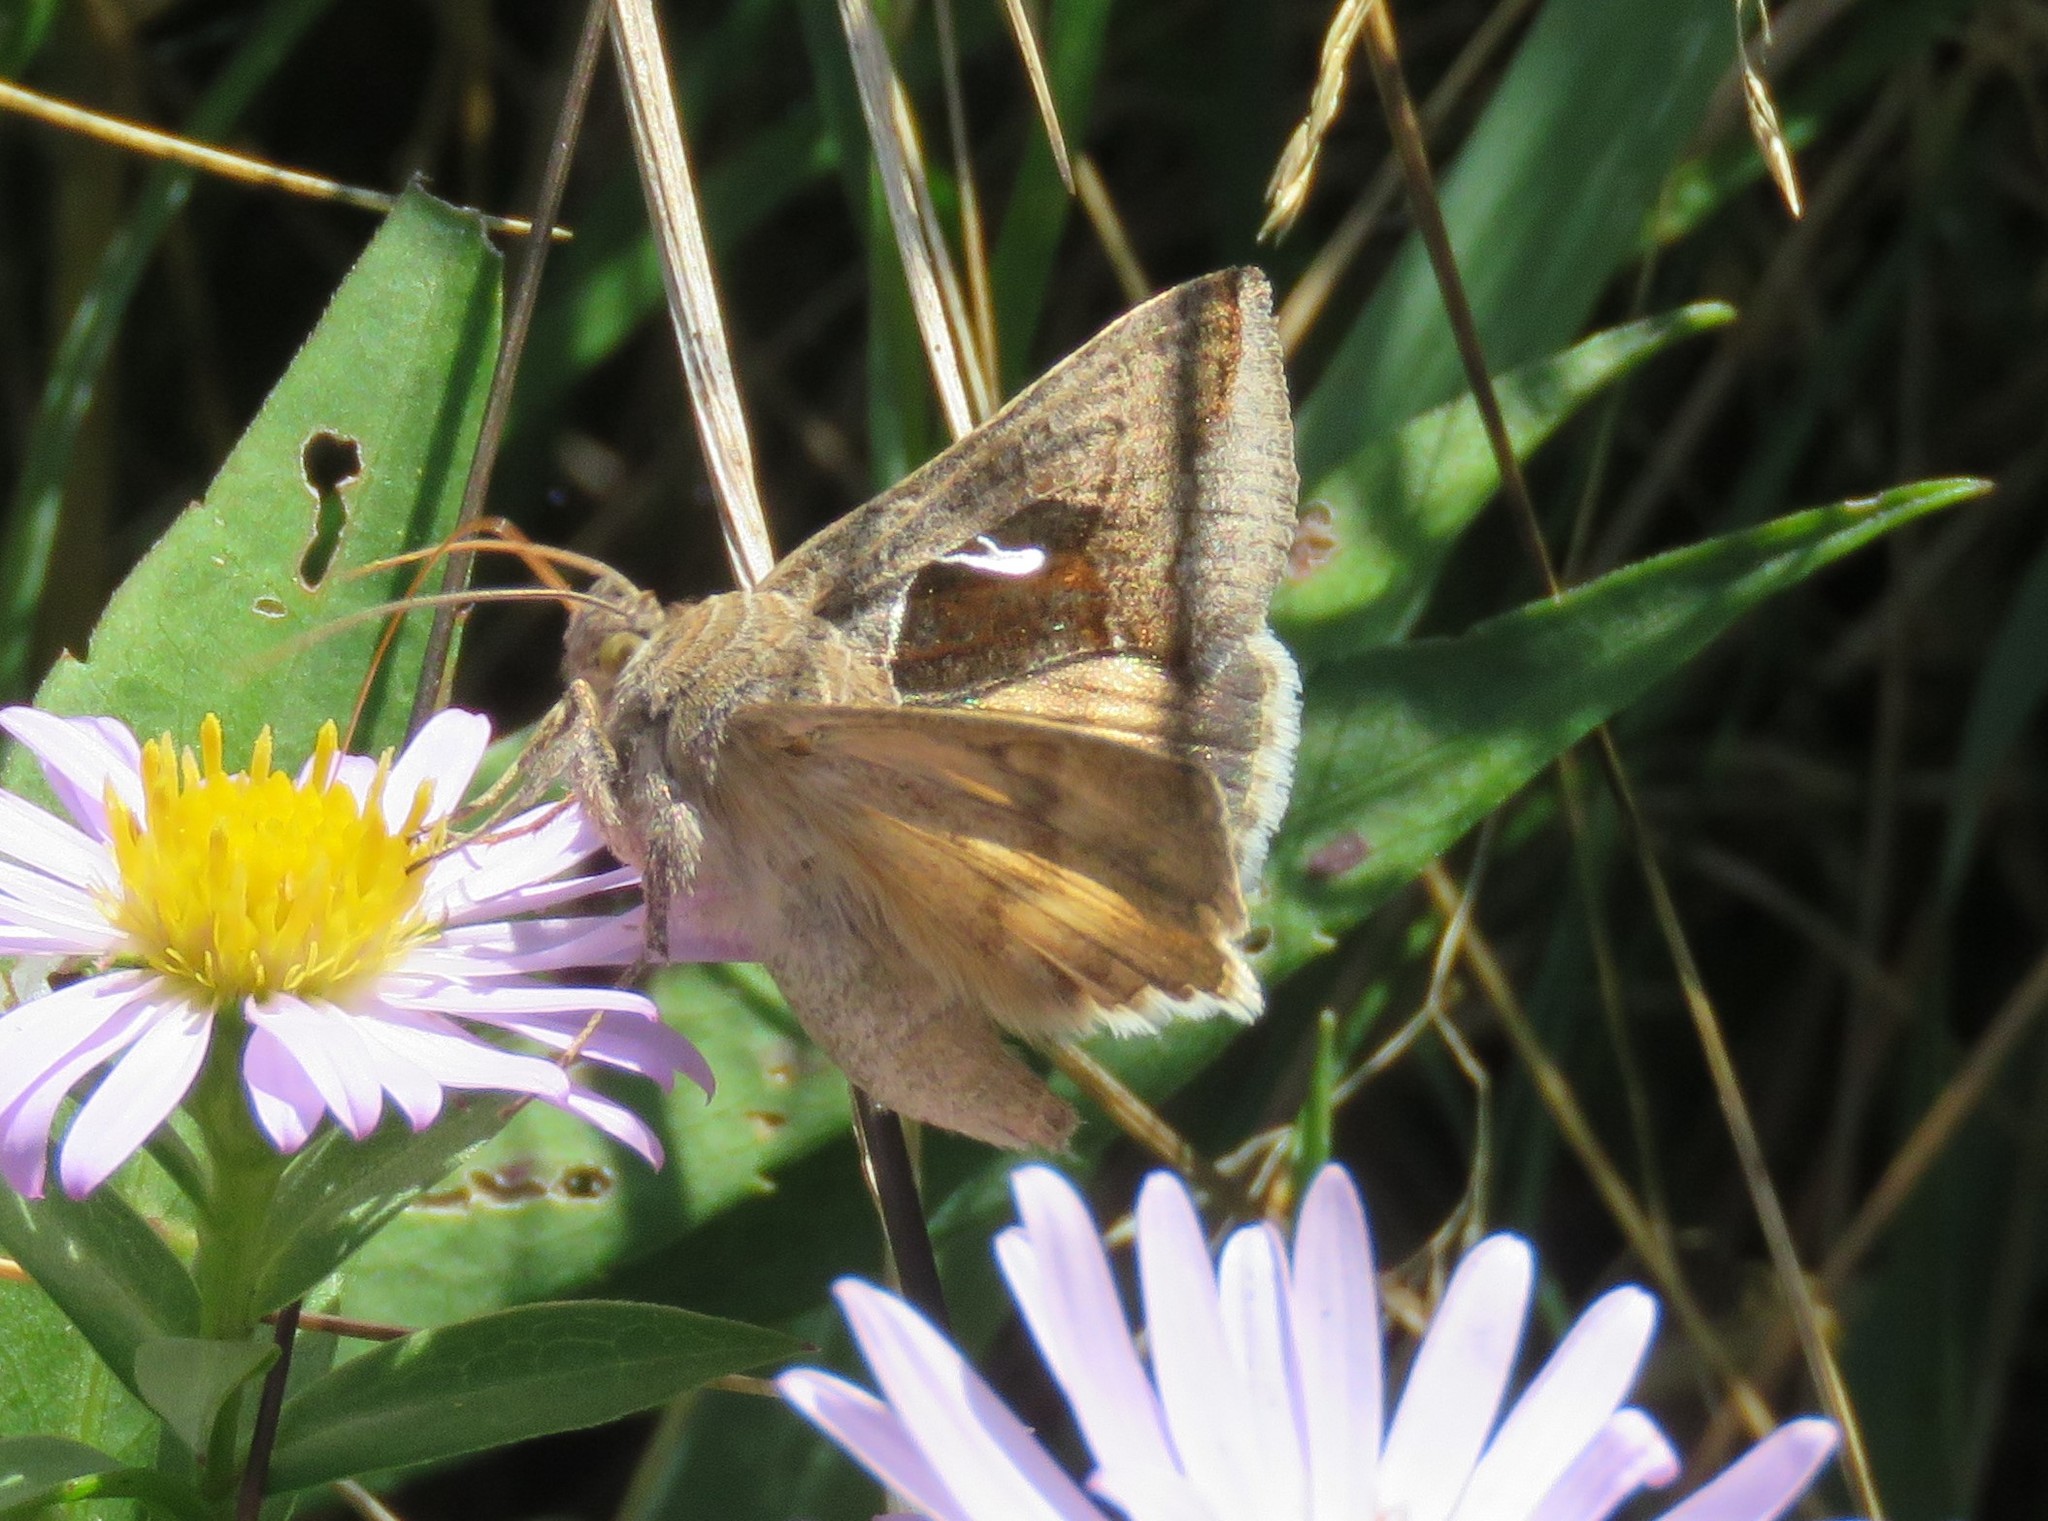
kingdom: Animalia
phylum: Arthropoda
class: Insecta
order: Lepidoptera
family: Noctuidae
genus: Anagrapha
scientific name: Anagrapha falcifera
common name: Celery looper
